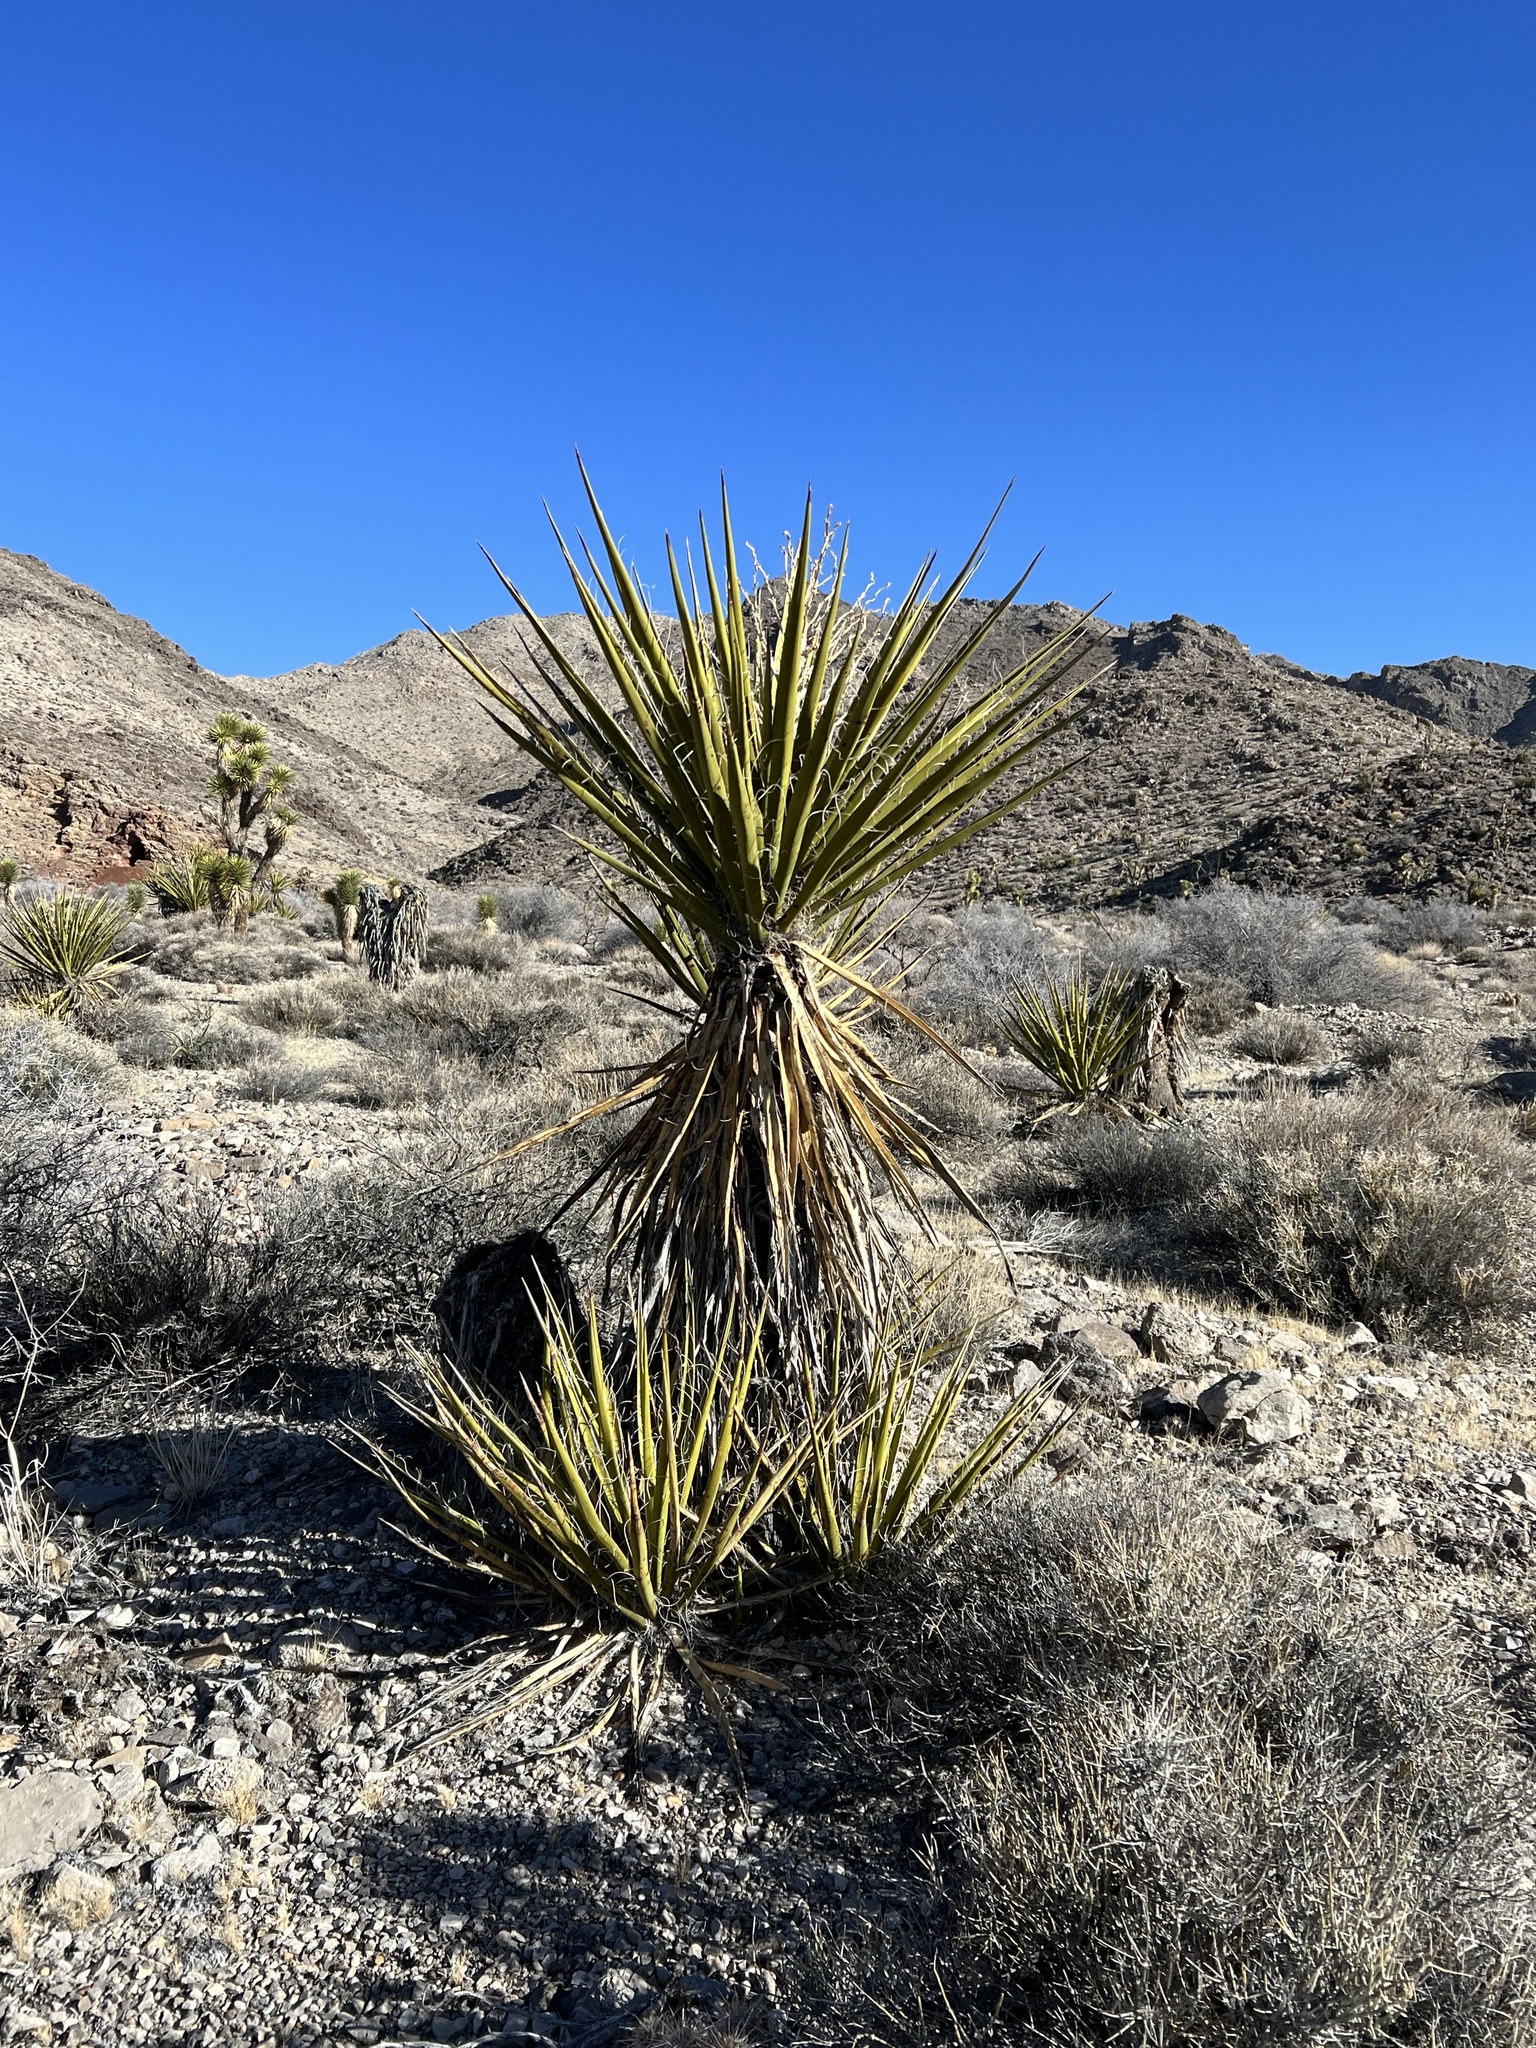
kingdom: Plantae
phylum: Tracheophyta
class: Liliopsida
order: Asparagales
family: Asparagaceae
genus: Yucca
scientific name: Yucca schidigera
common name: Mojave yucca
